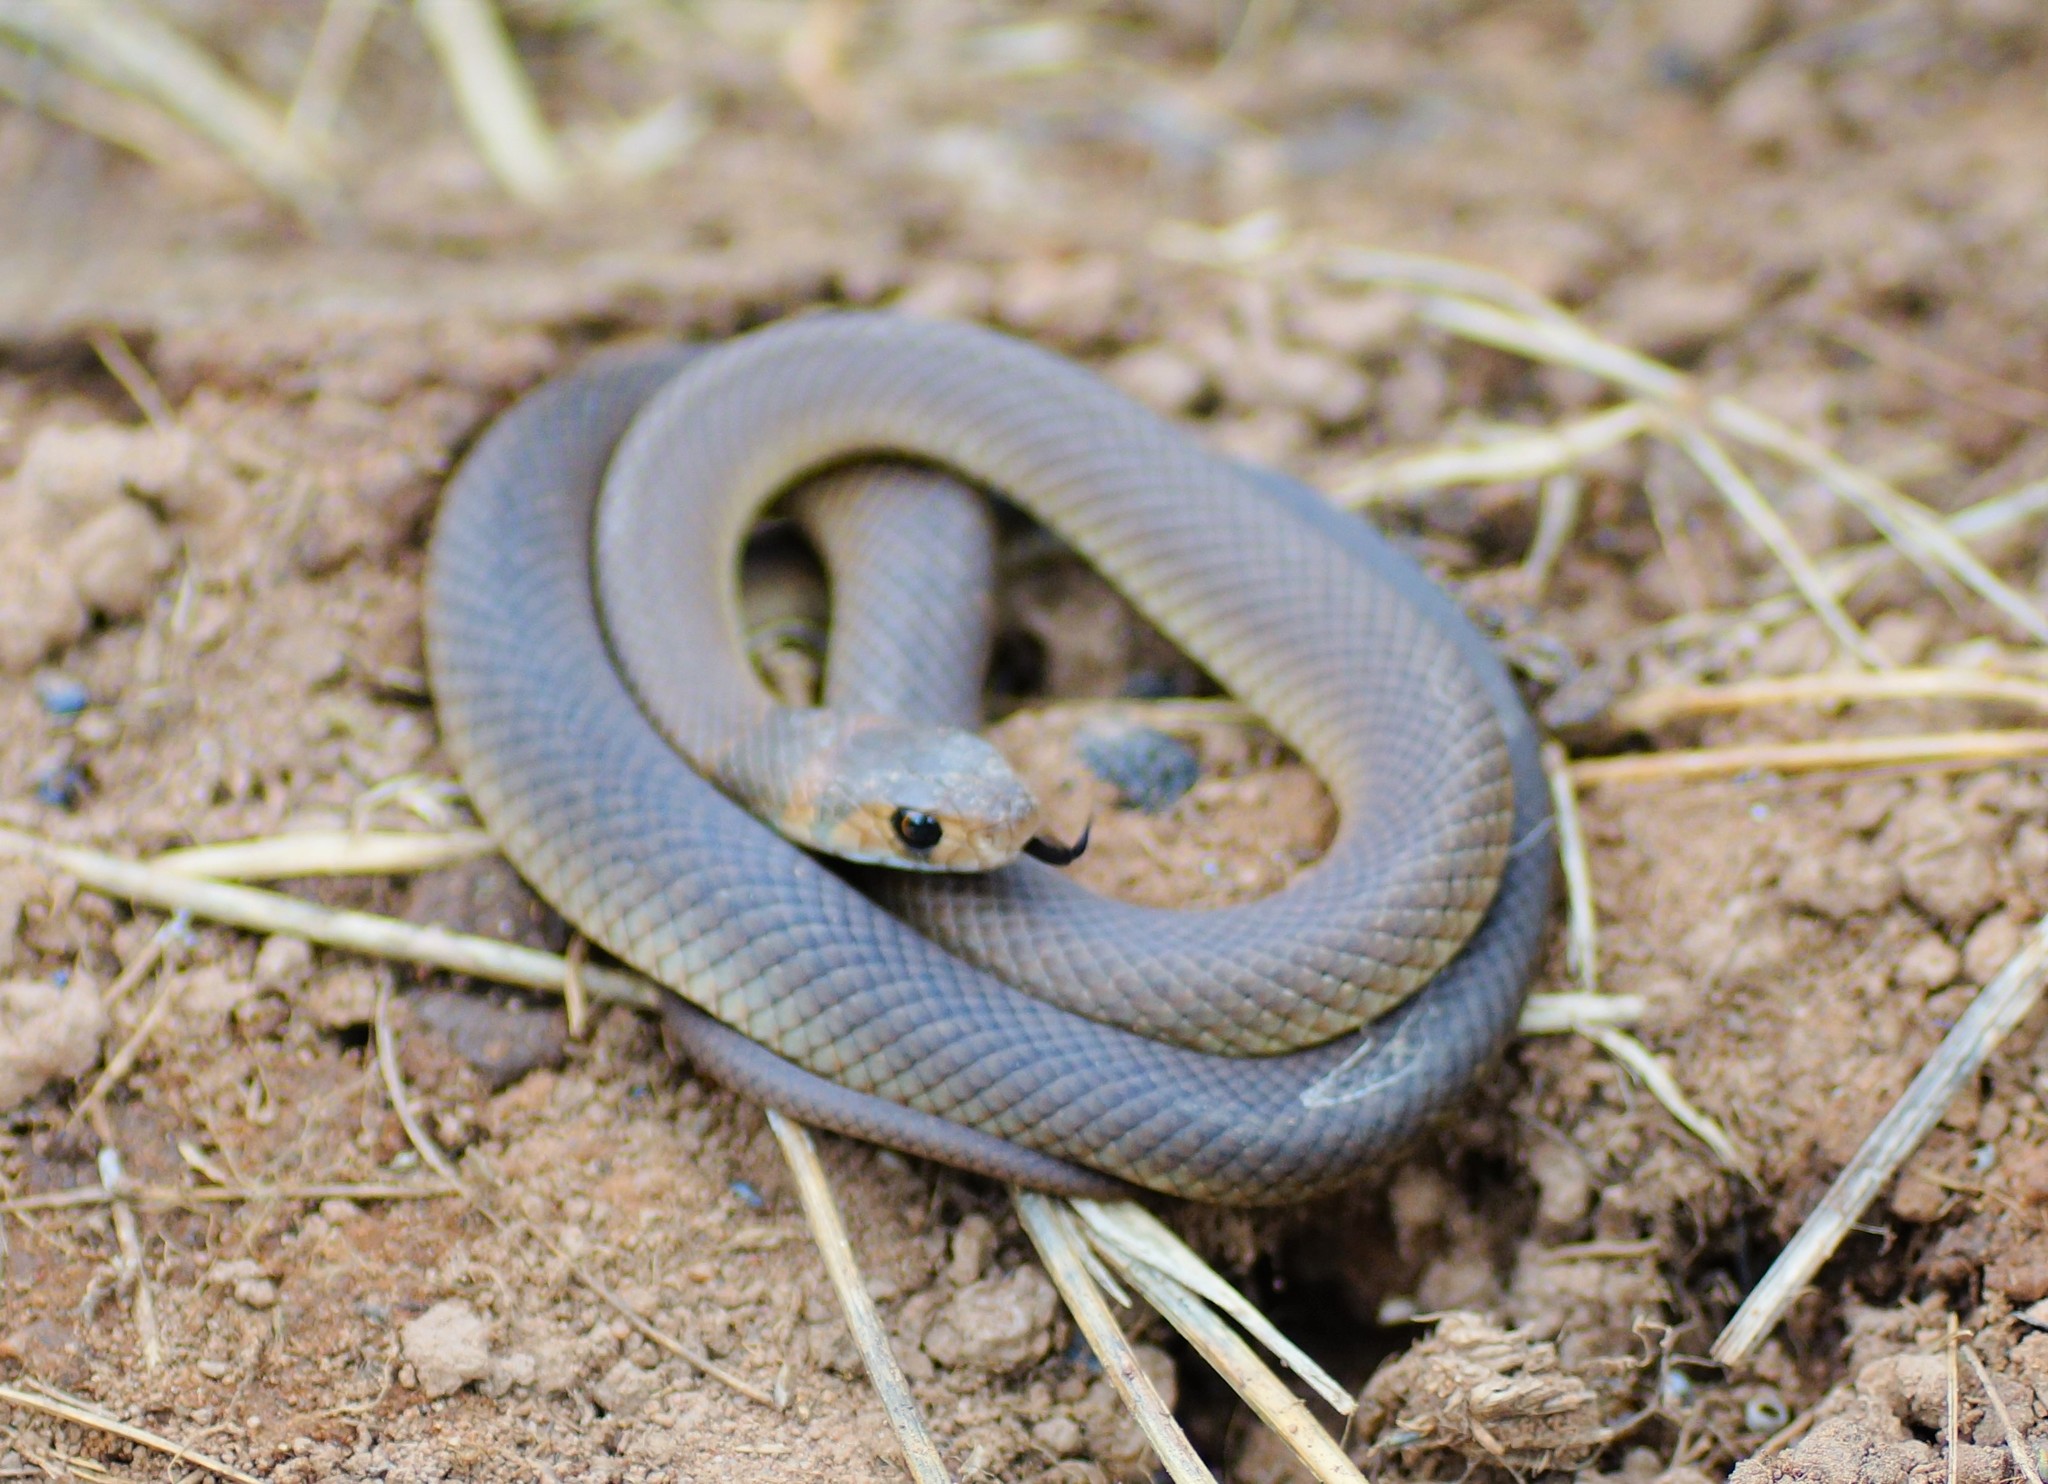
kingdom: Animalia
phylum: Chordata
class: Squamata
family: Elapidae
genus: Pseudonaja
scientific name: Pseudonaja textilis
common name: Eastern brown snake
